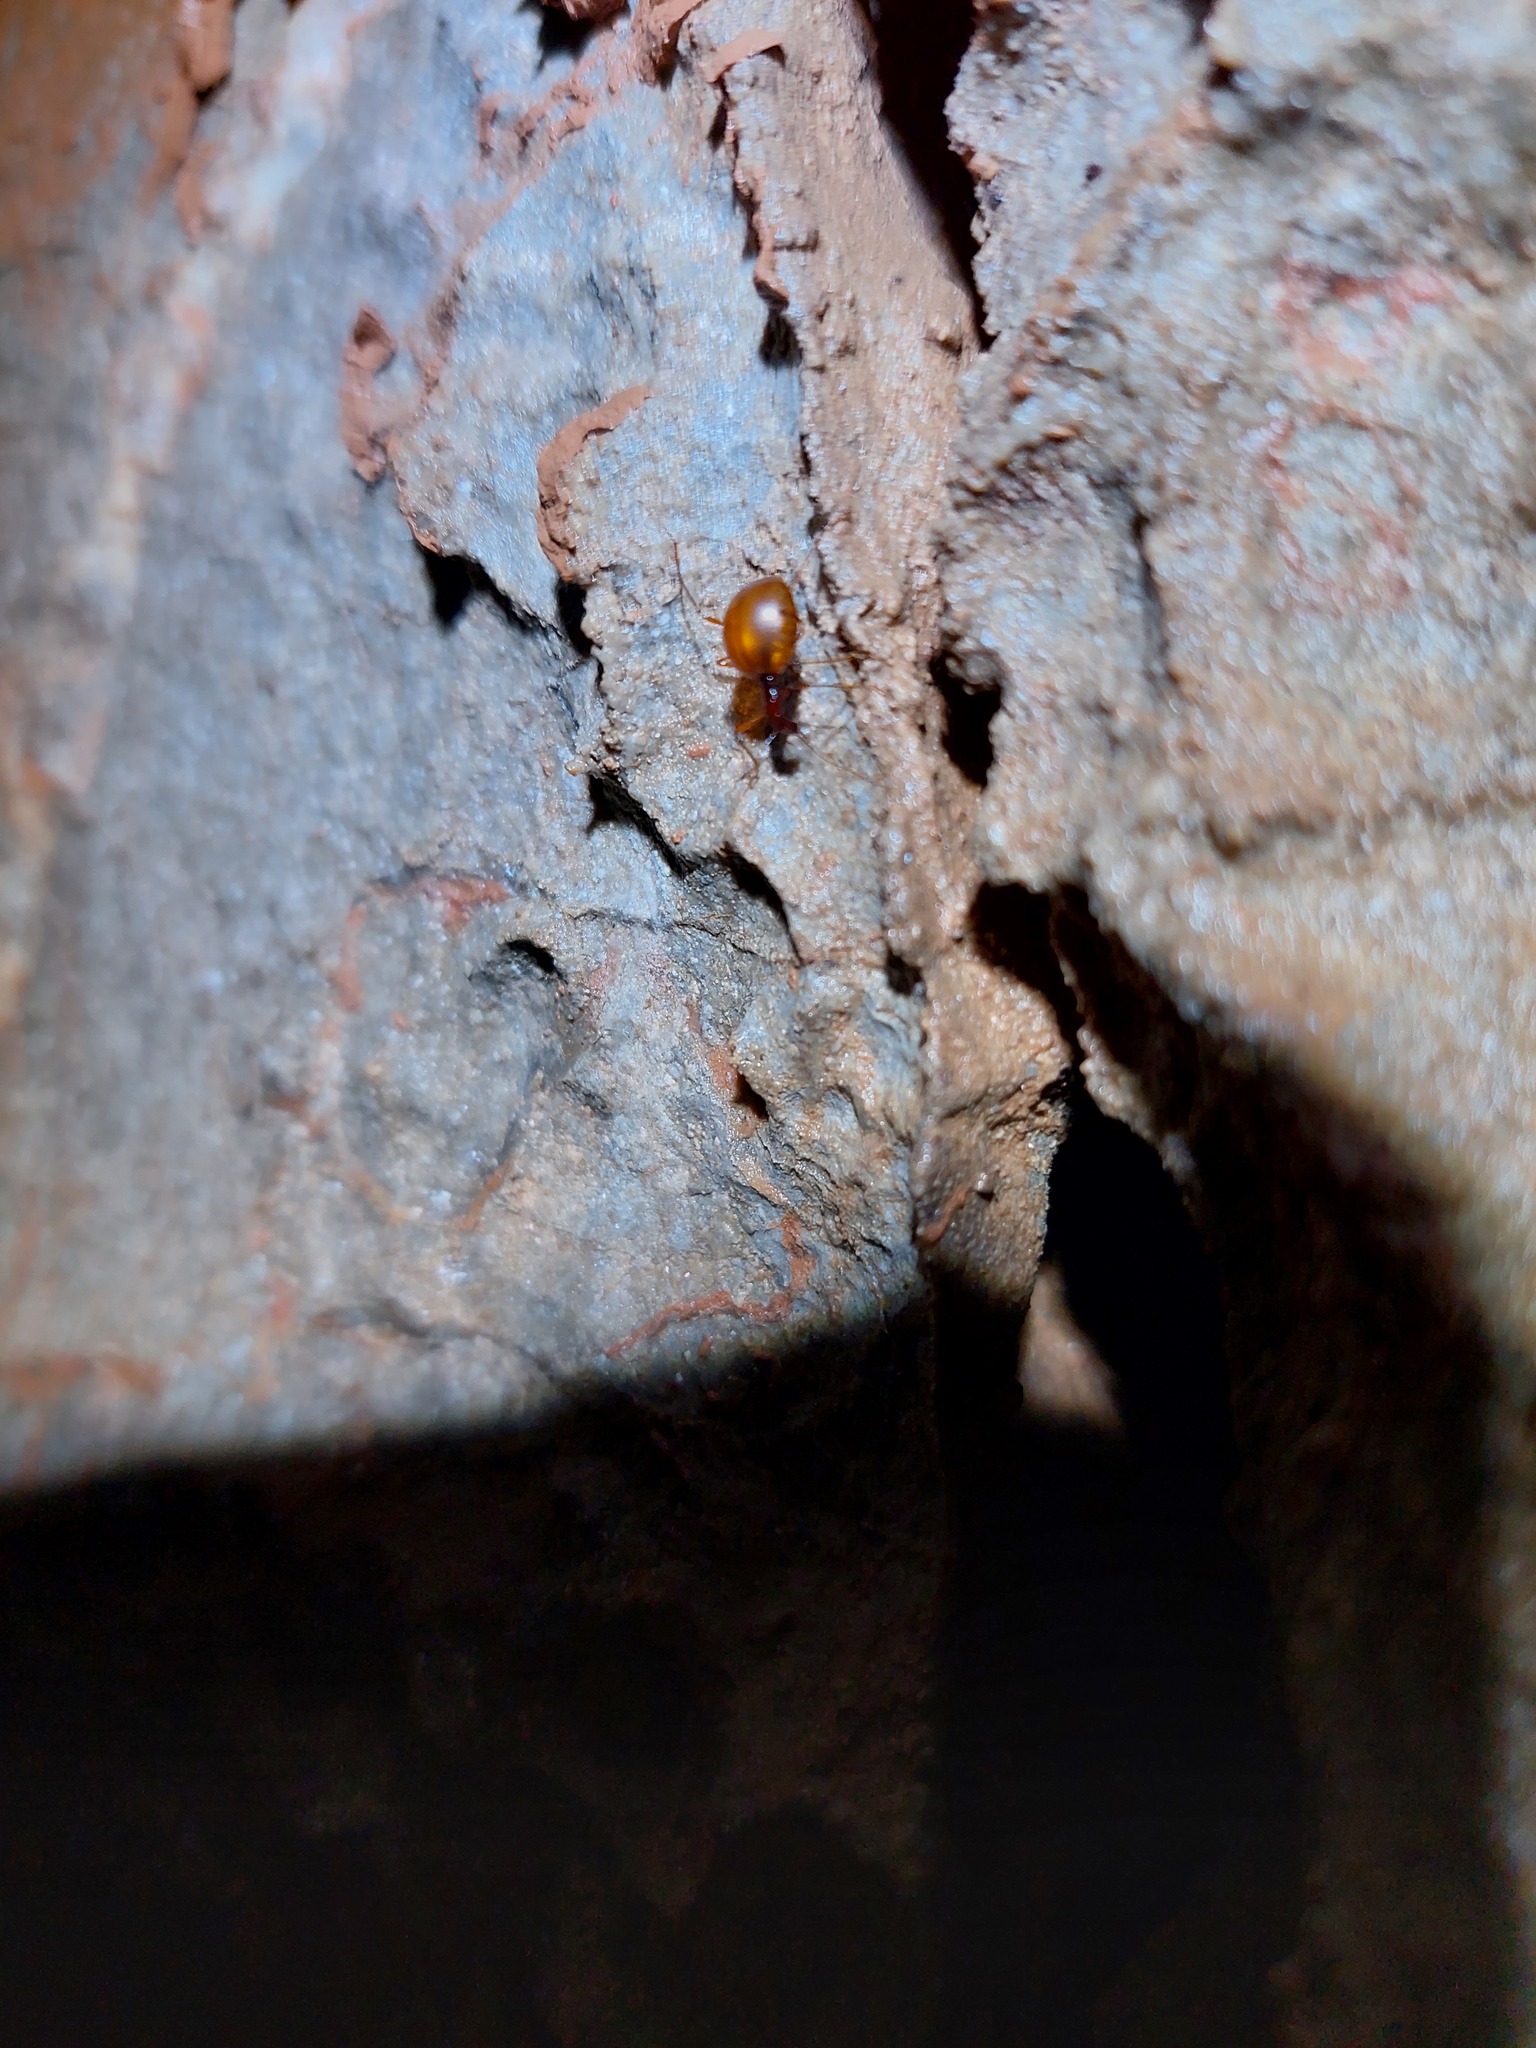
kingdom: Animalia
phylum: Arthropoda
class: Insecta
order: Coleoptera
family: Leiodidae
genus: Leptodirus
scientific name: Leptodirus
